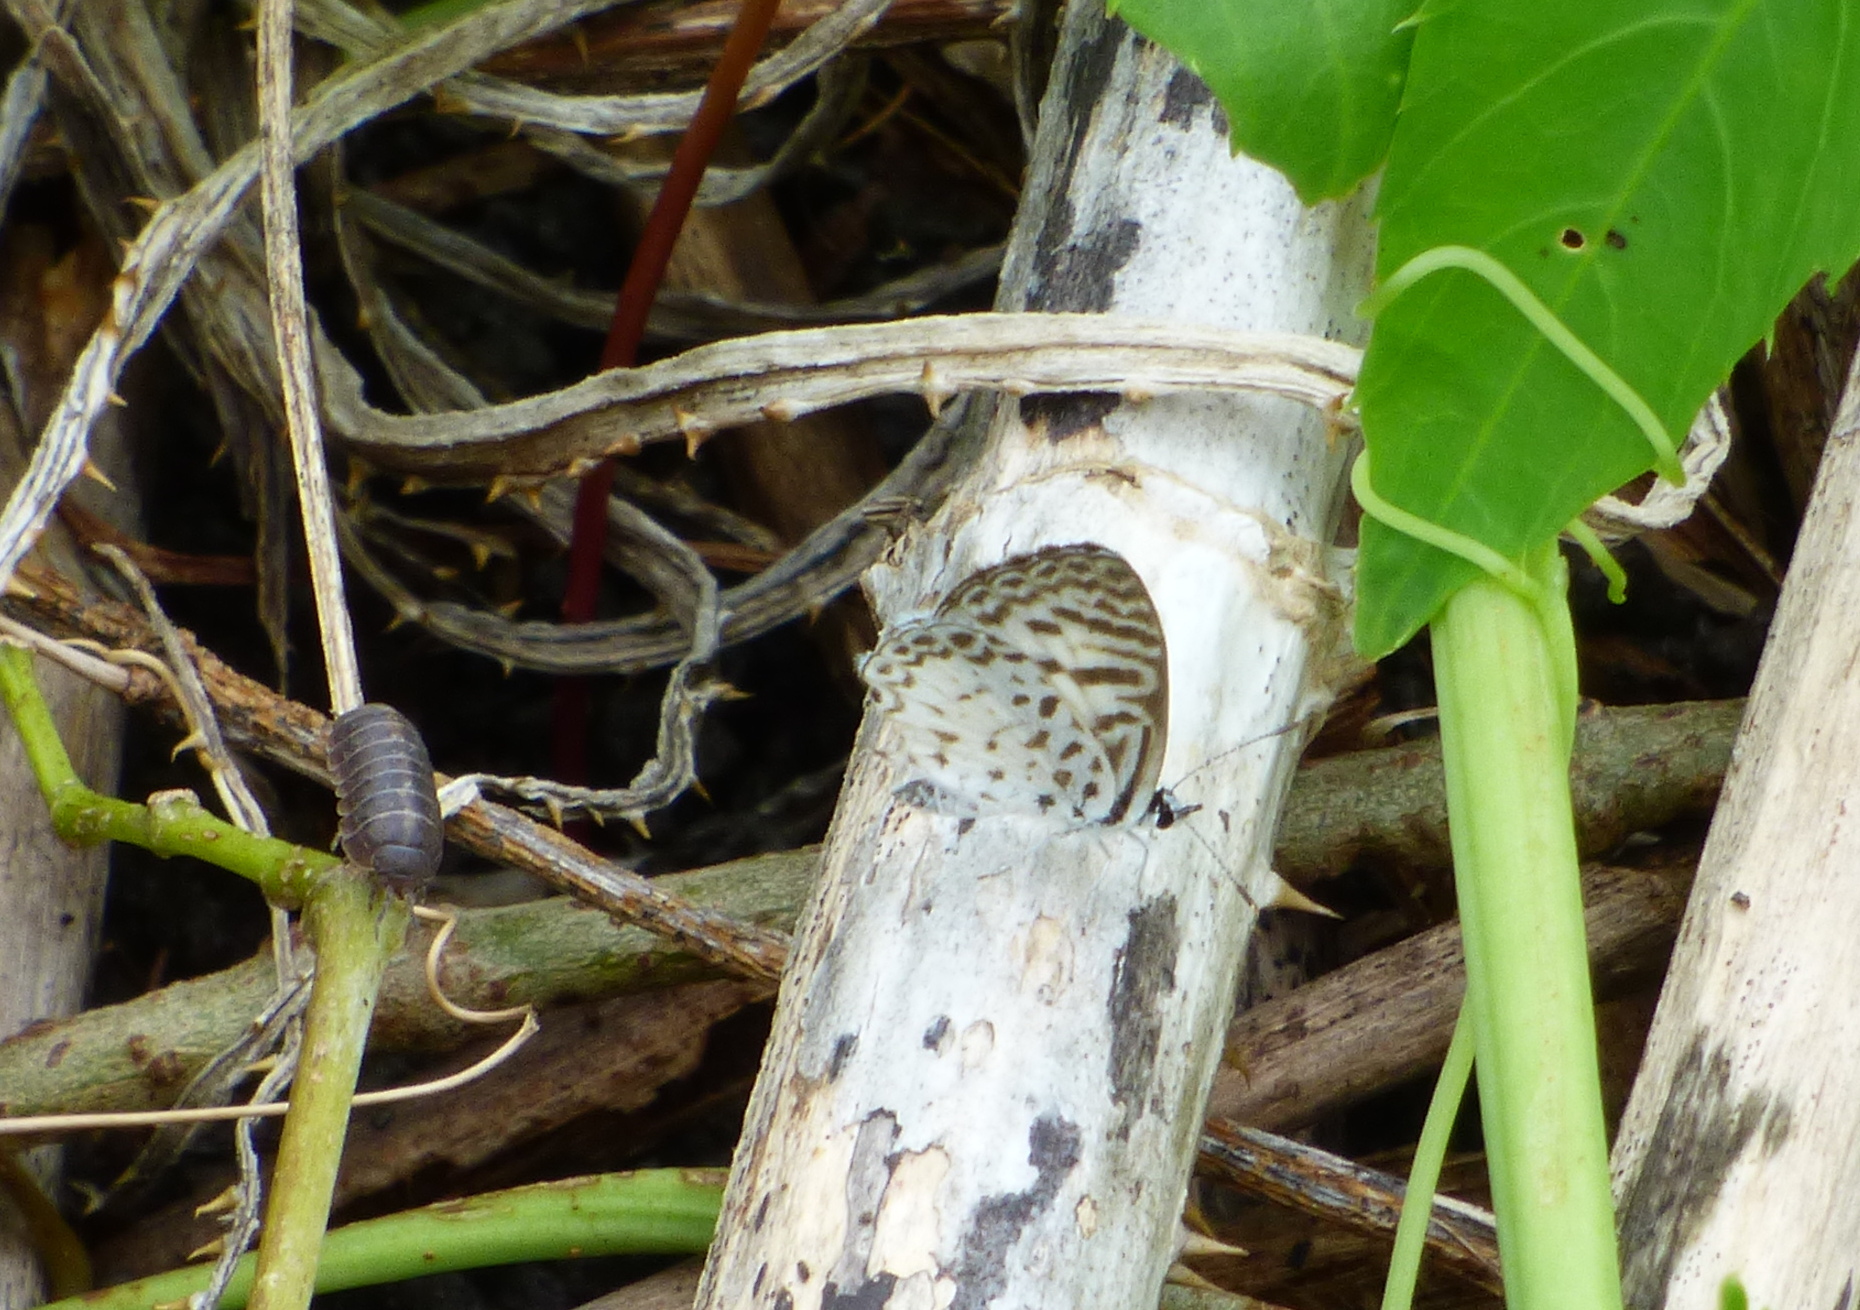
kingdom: Animalia
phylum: Arthropoda
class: Insecta
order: Lepidoptera
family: Lycaenidae
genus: Leptotes
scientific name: Leptotes cassius
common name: Cassius blue
